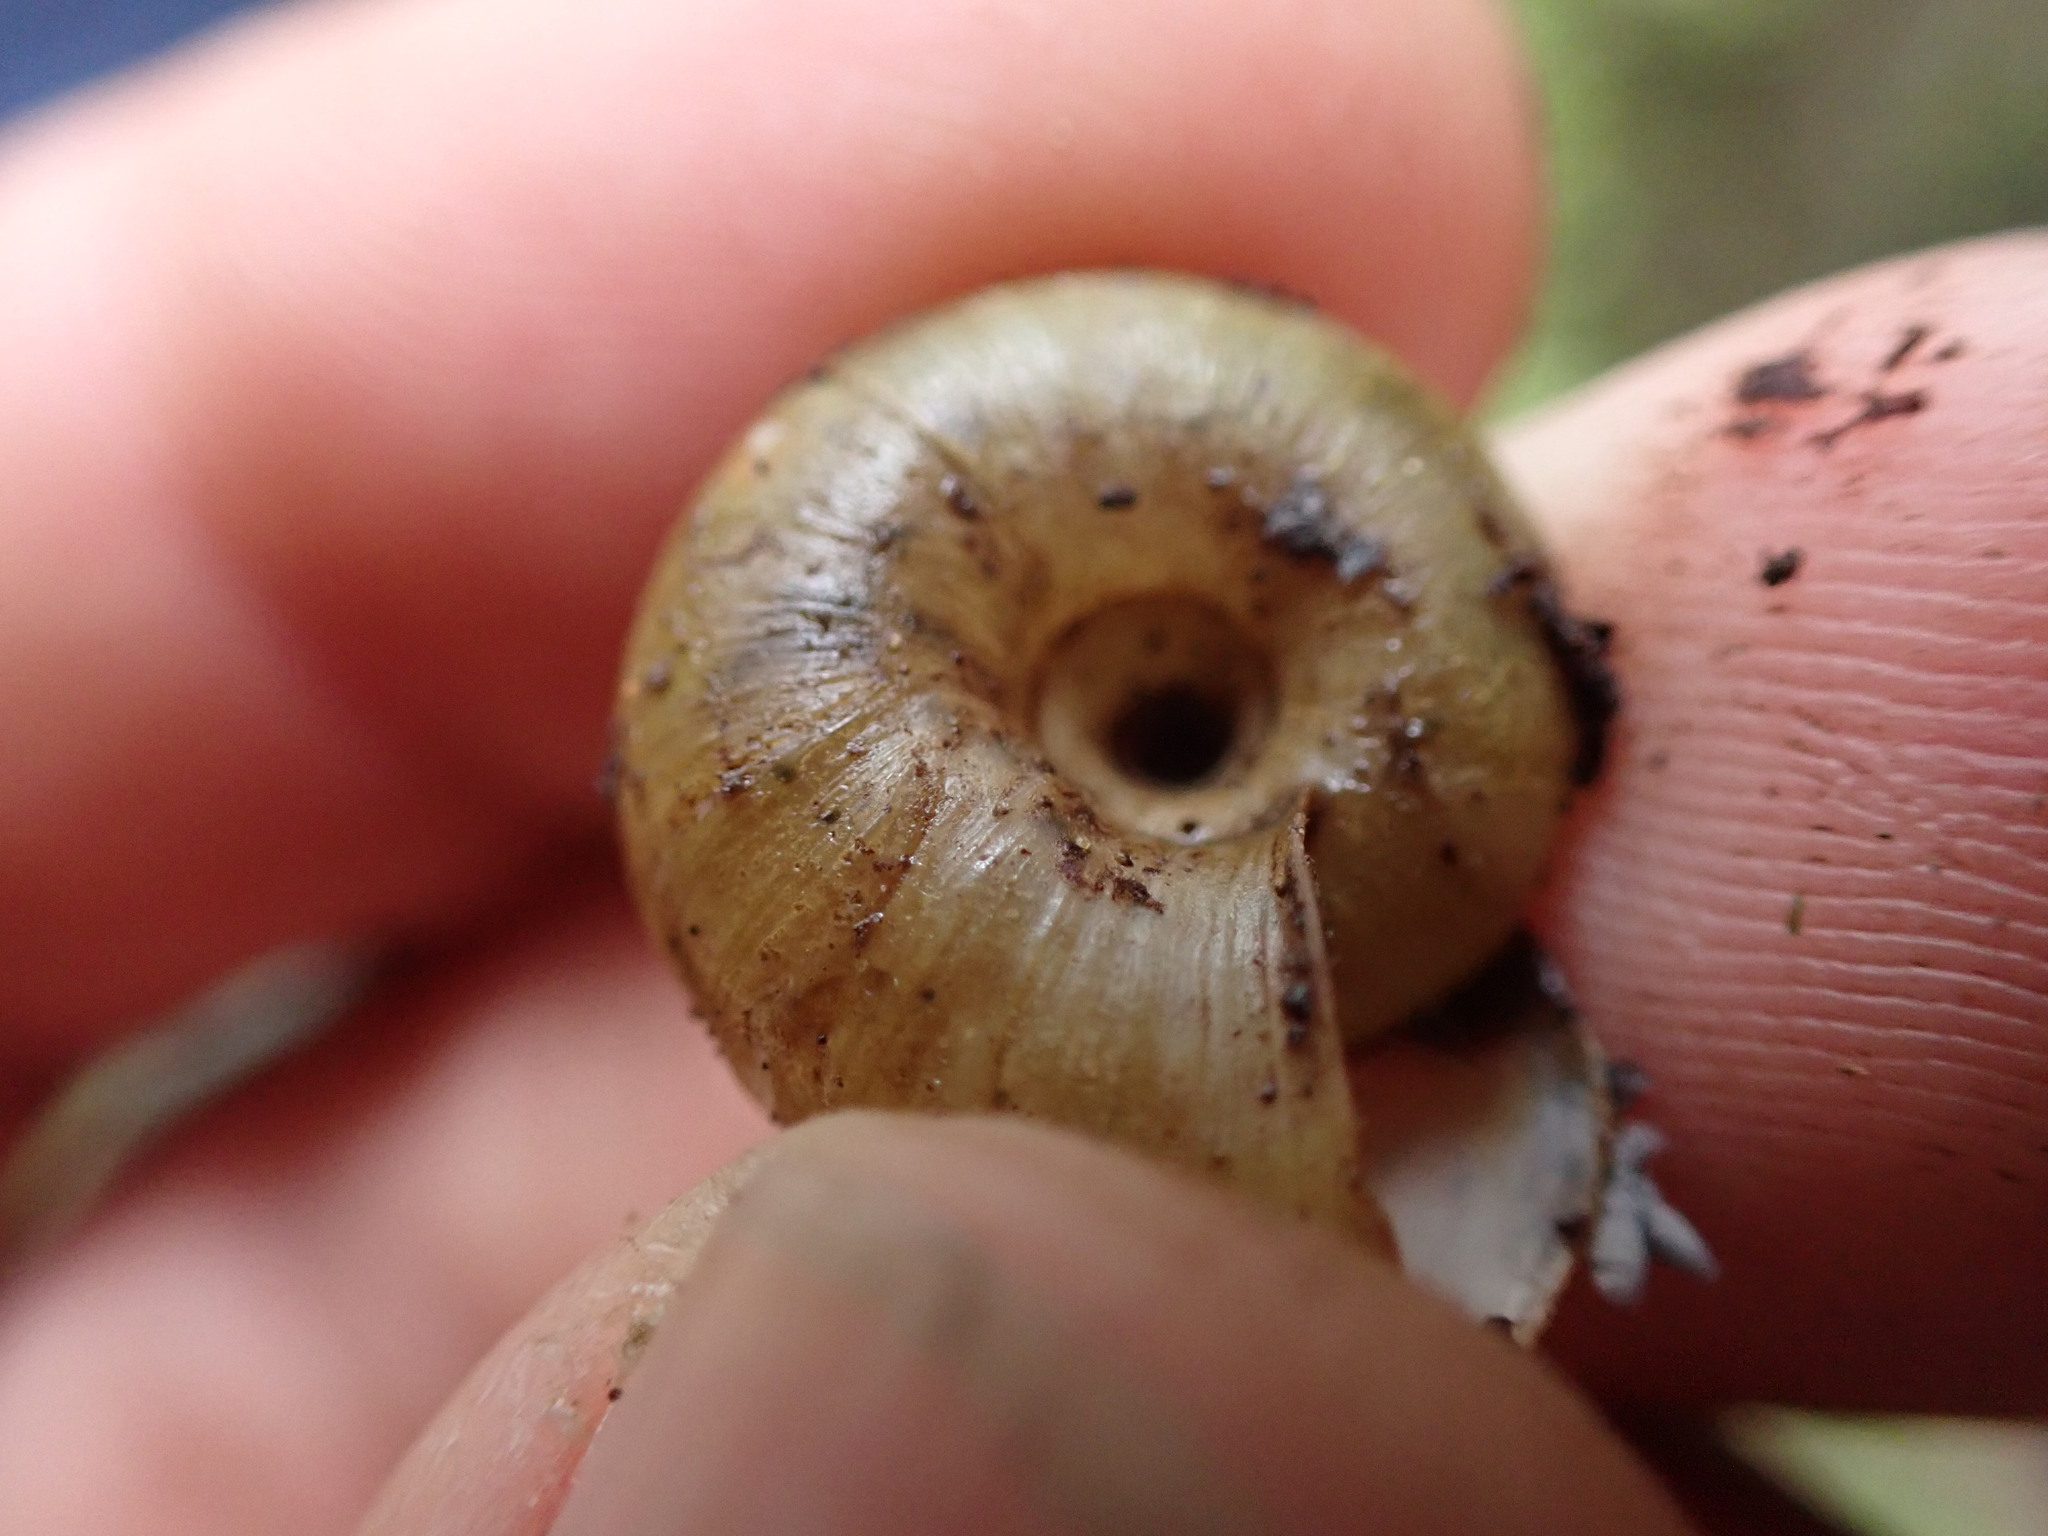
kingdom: Animalia
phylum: Mollusca
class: Gastropoda
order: Stylommatophora
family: Haplotrematidae
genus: Ancotrema
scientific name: Ancotrema sportella
